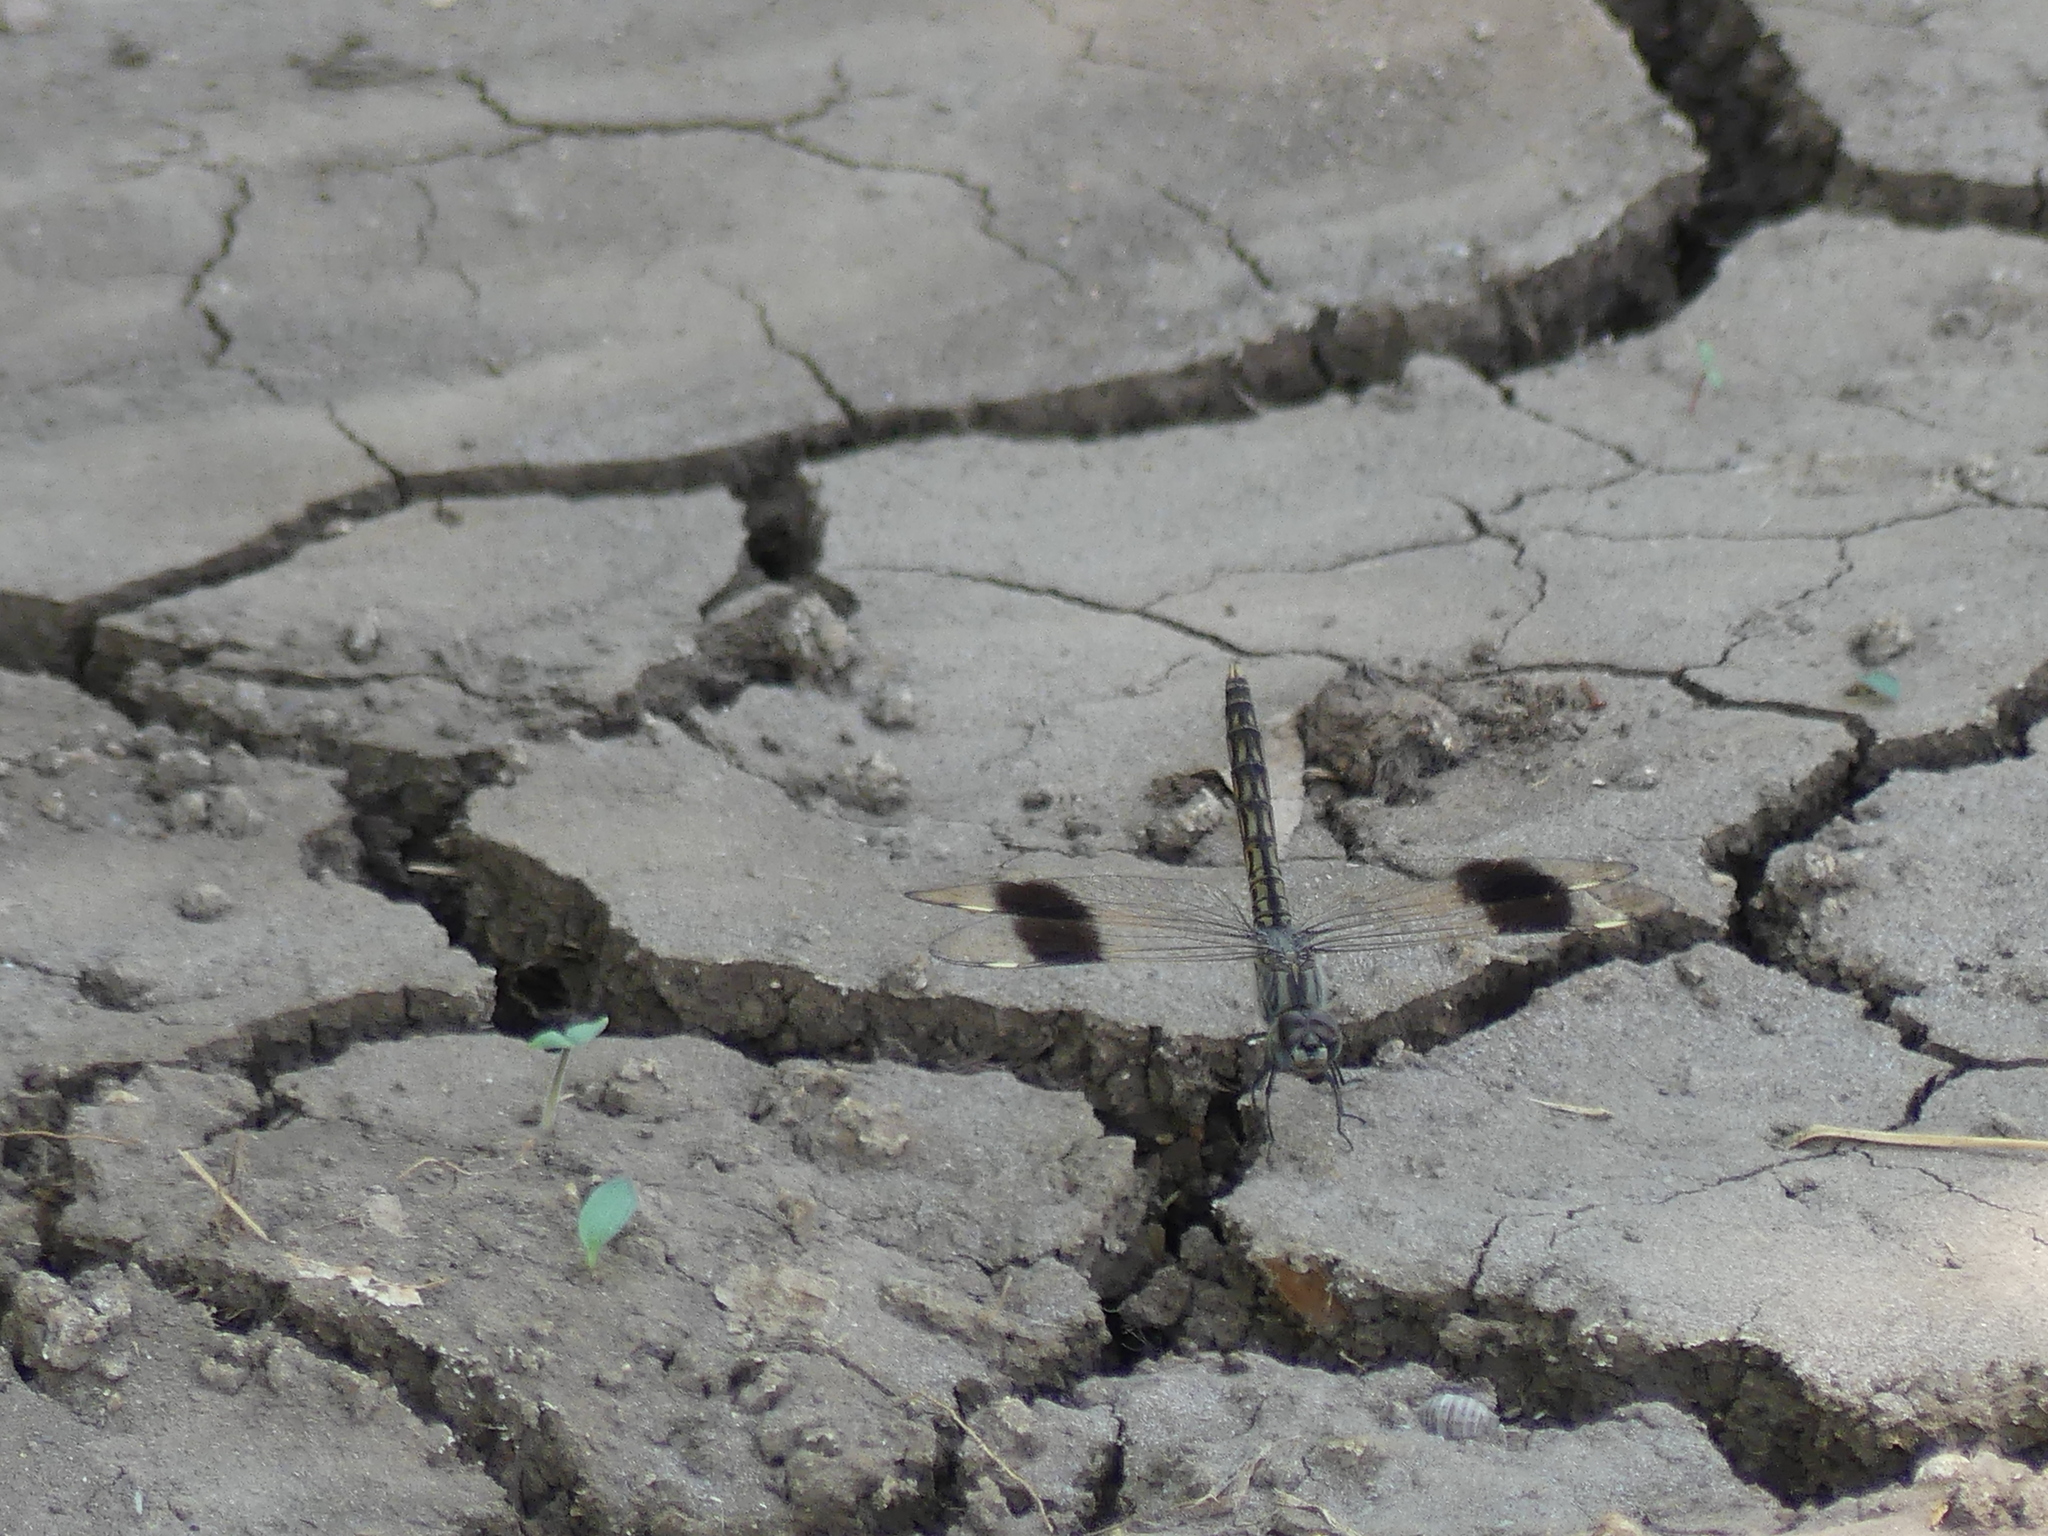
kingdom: Animalia
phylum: Arthropoda
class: Insecta
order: Odonata
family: Libellulidae
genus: Brachythemis
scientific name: Brachythemis impartita
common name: Banded groundling
